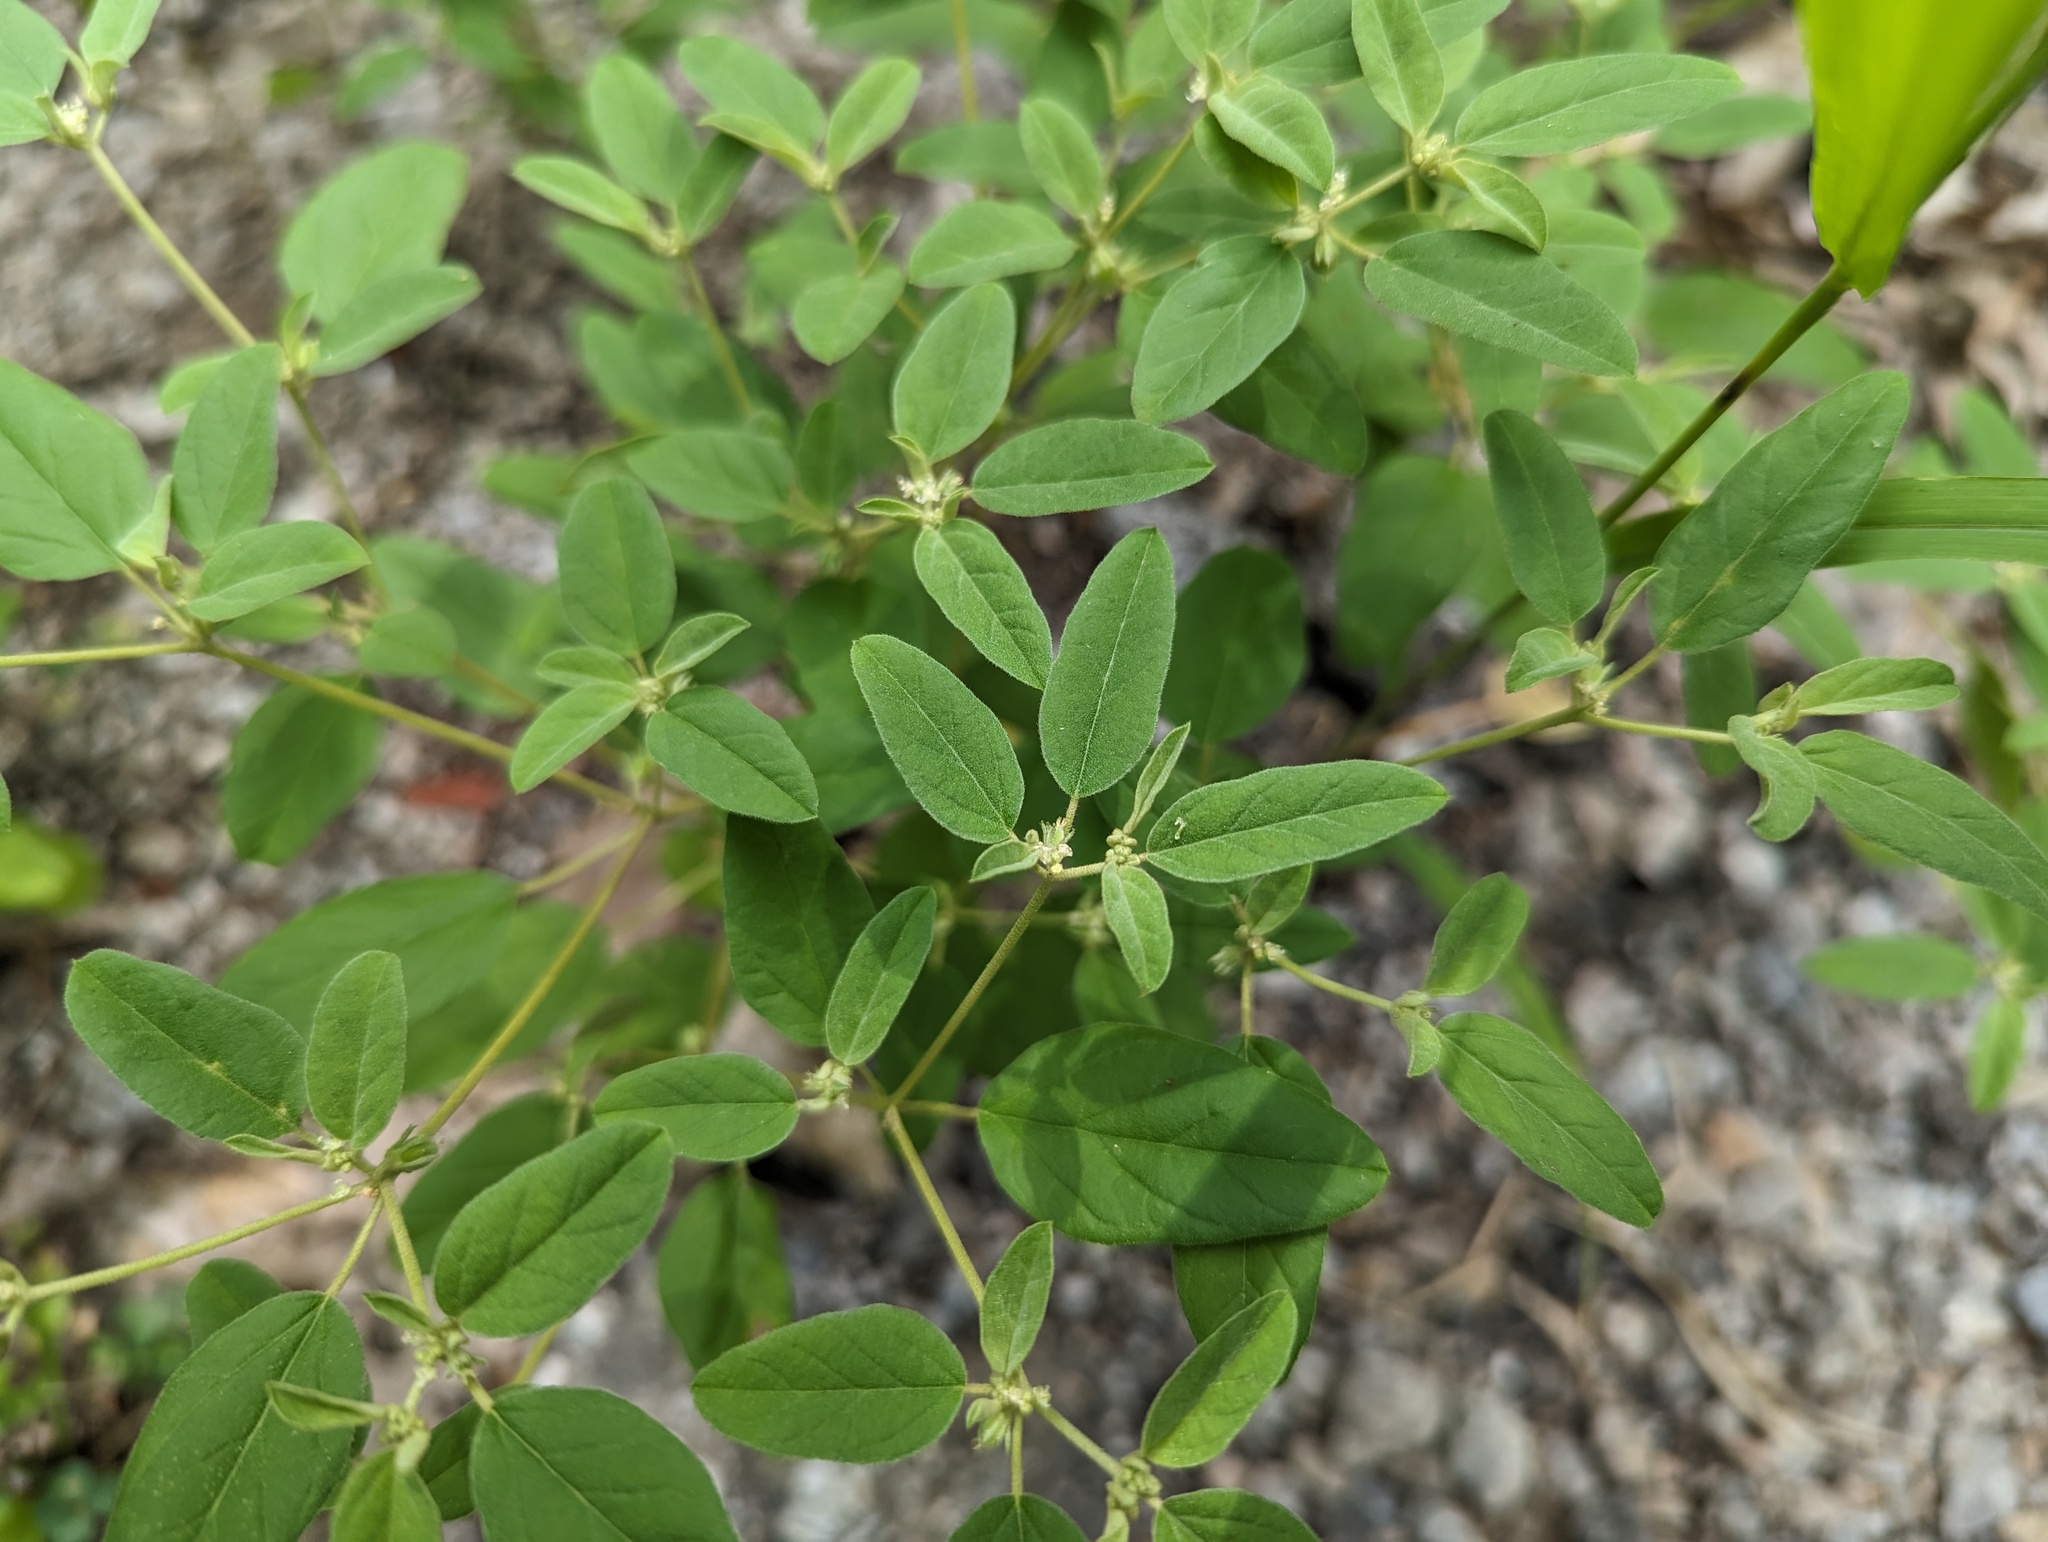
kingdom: Plantae
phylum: Tracheophyta
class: Magnoliopsida
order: Malpighiales
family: Euphorbiaceae
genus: Croton
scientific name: Croton monanthogynus
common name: One-seed croton
